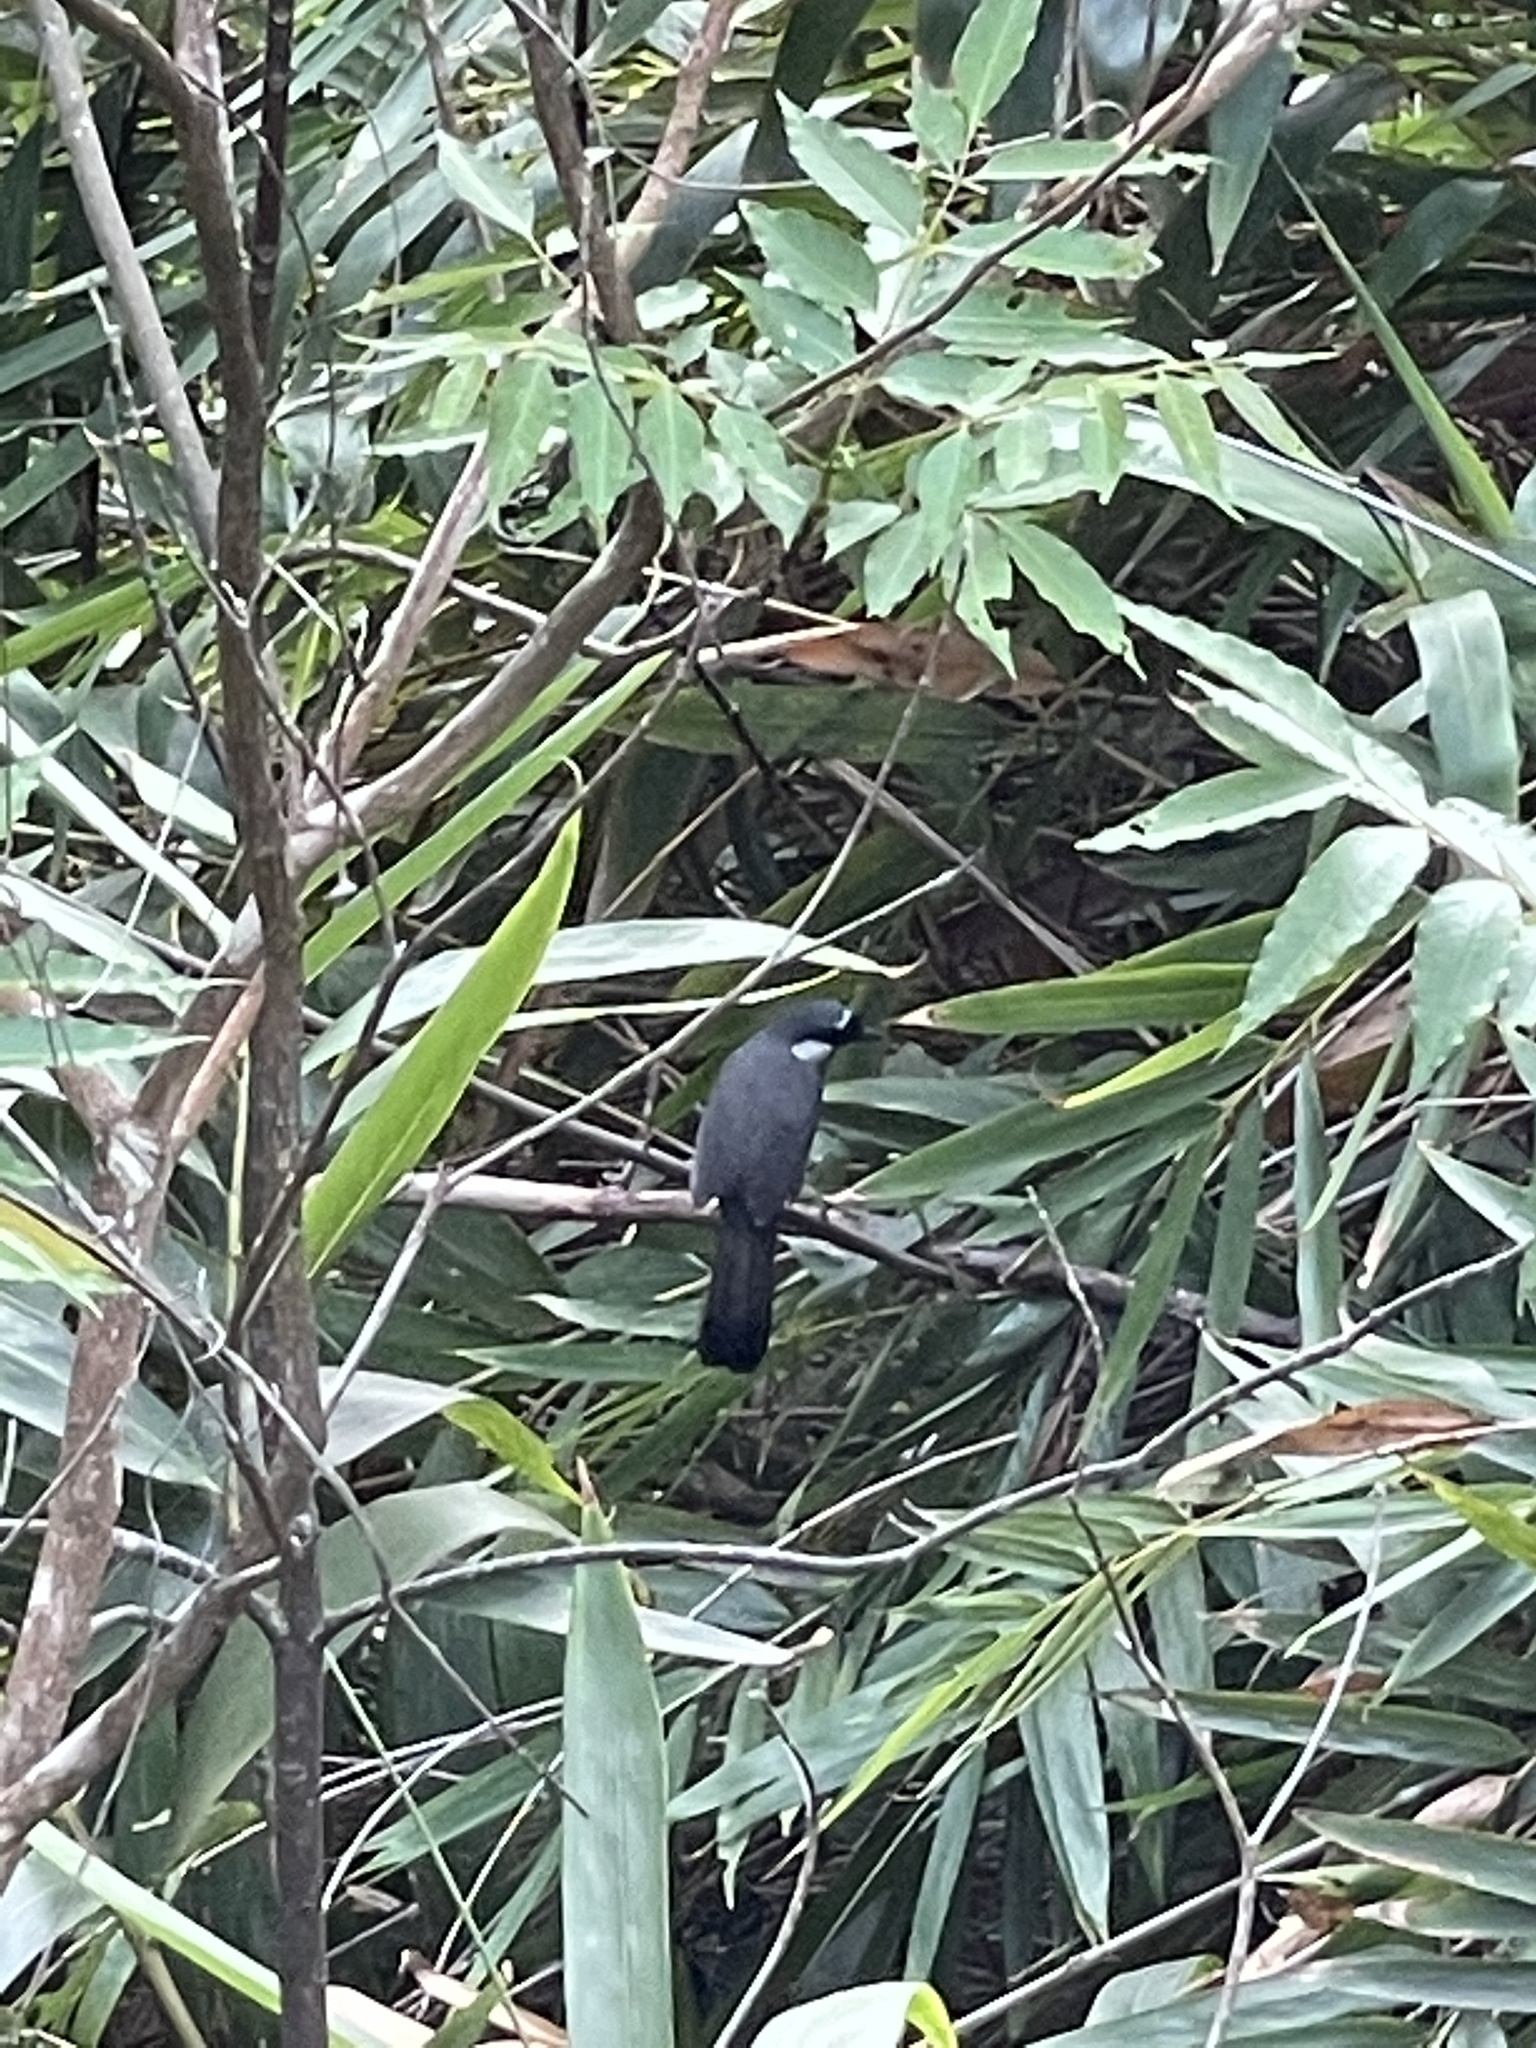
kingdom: Animalia
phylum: Chordata
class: Aves
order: Passeriformes
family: Leiothrichidae
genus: Garrulax
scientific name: Garrulax chinensis
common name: Black-throated laughingthrush
